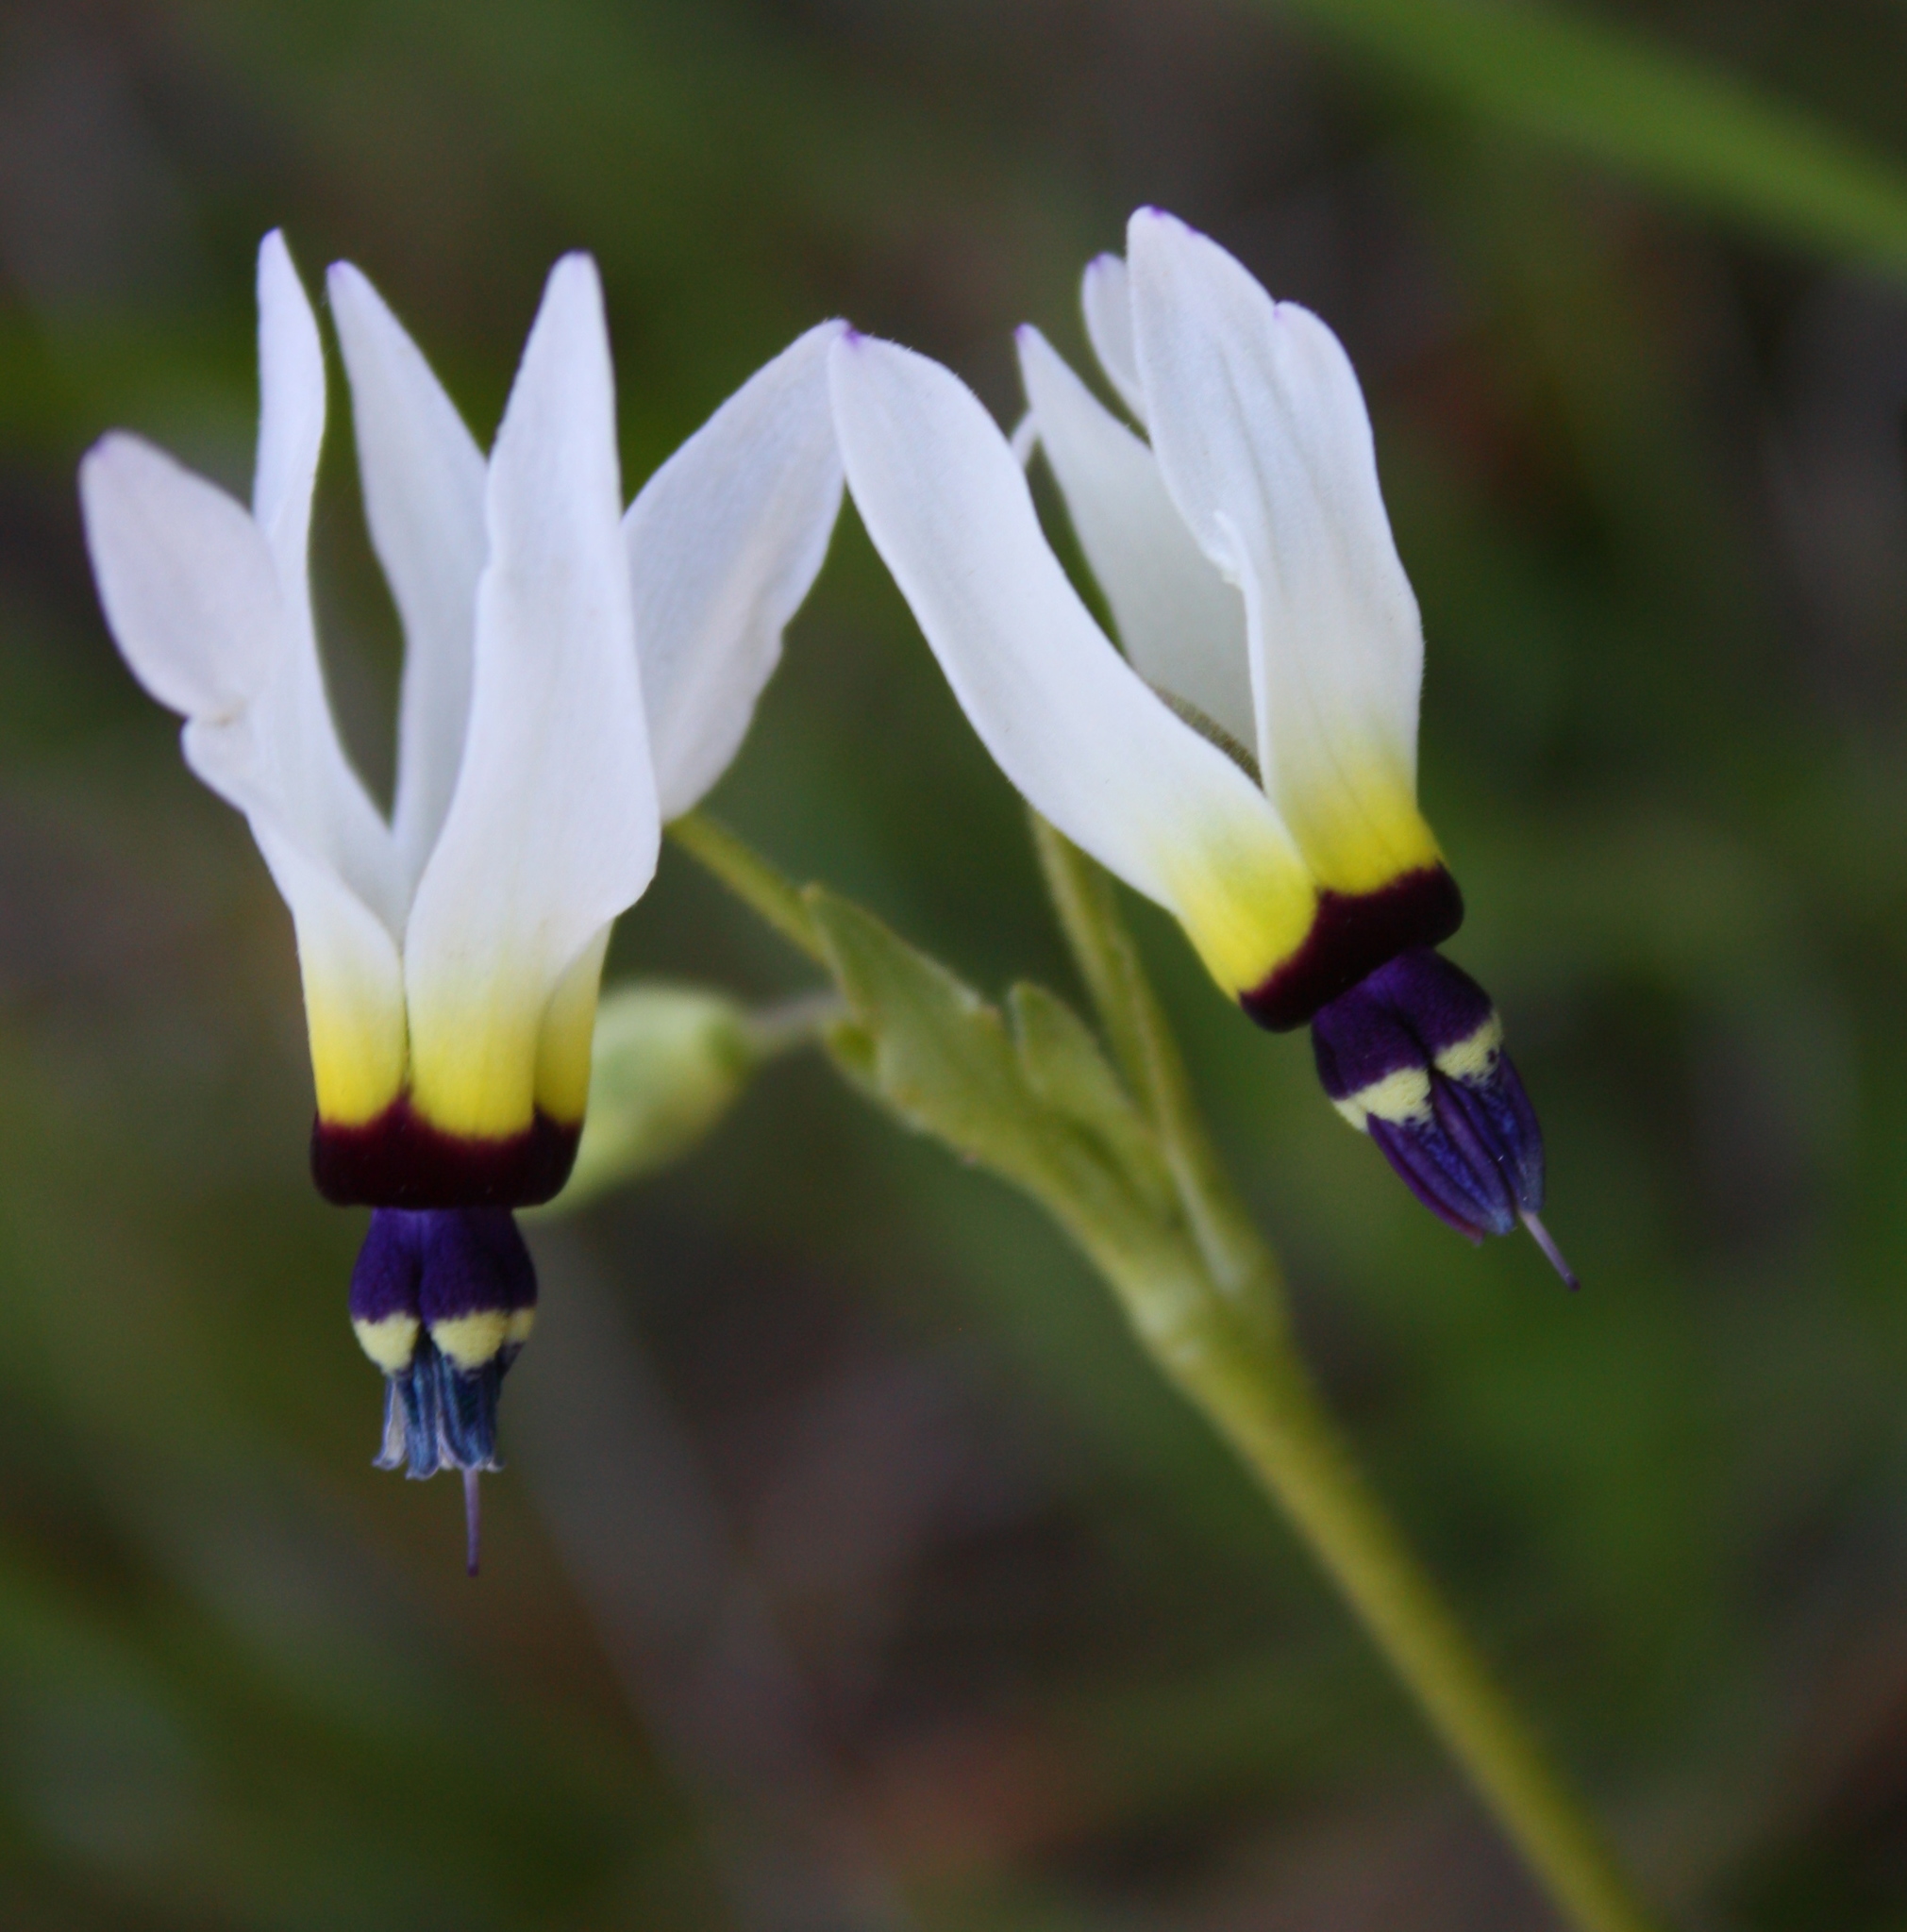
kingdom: Plantae
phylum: Tracheophyta
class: Magnoliopsida
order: Ericales
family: Primulaceae
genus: Dodecatheon
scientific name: Dodecatheon clevelandii
